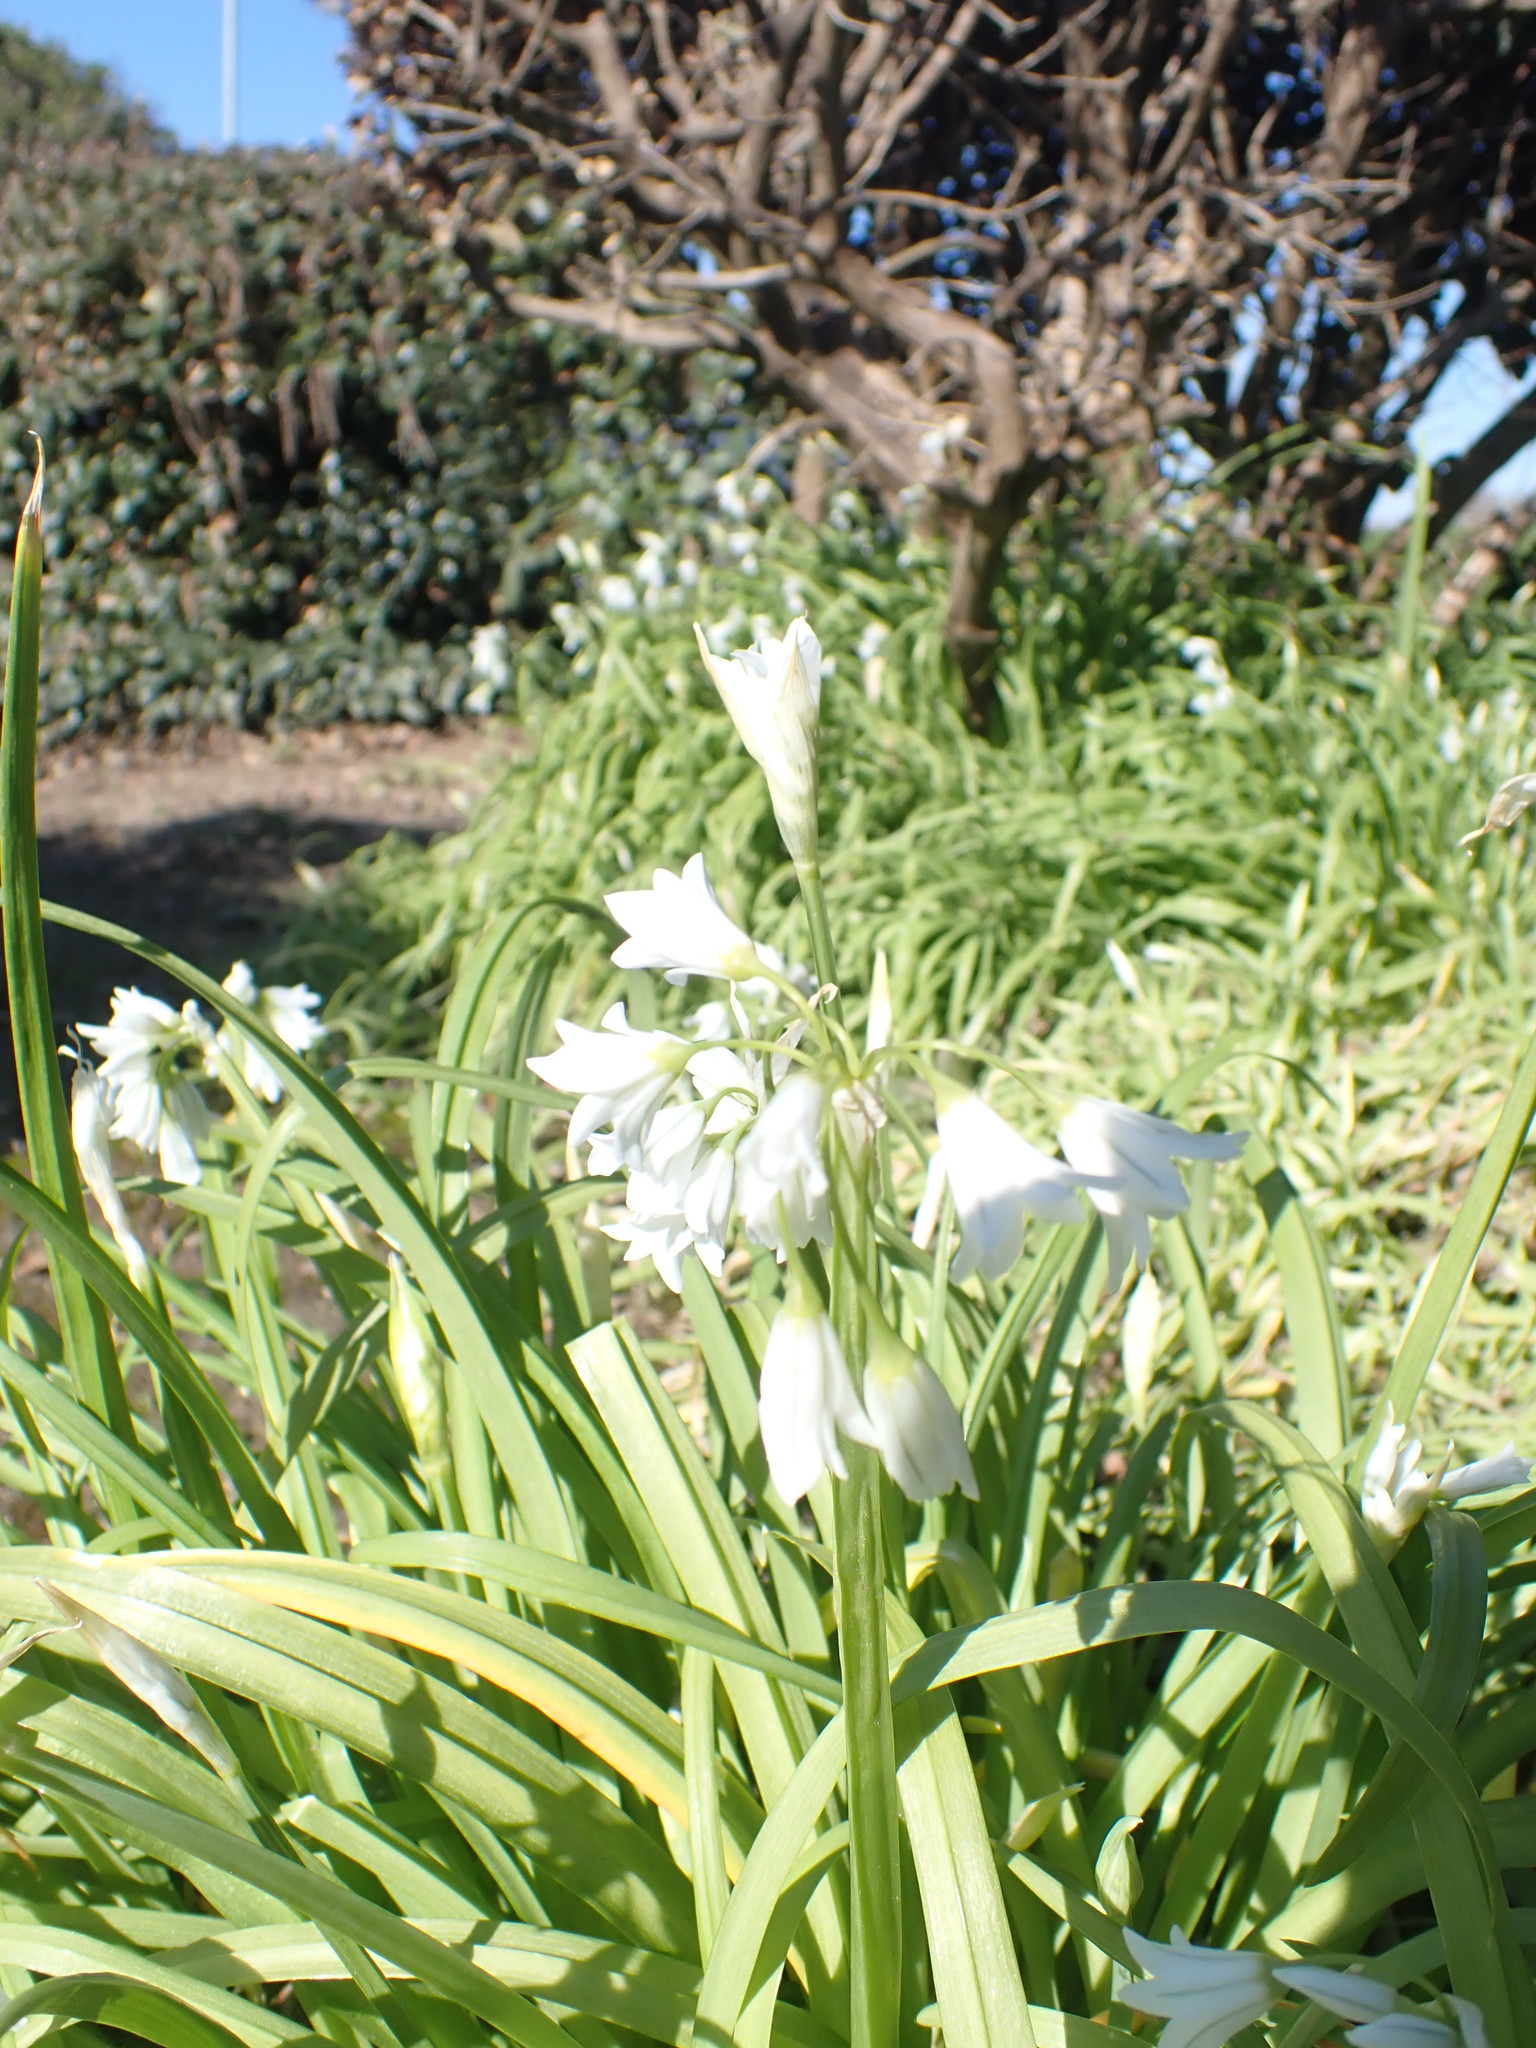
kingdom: Plantae
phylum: Tracheophyta
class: Liliopsida
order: Asparagales
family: Amaryllidaceae
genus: Allium
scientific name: Allium triquetrum
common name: Three-cornered garlic
